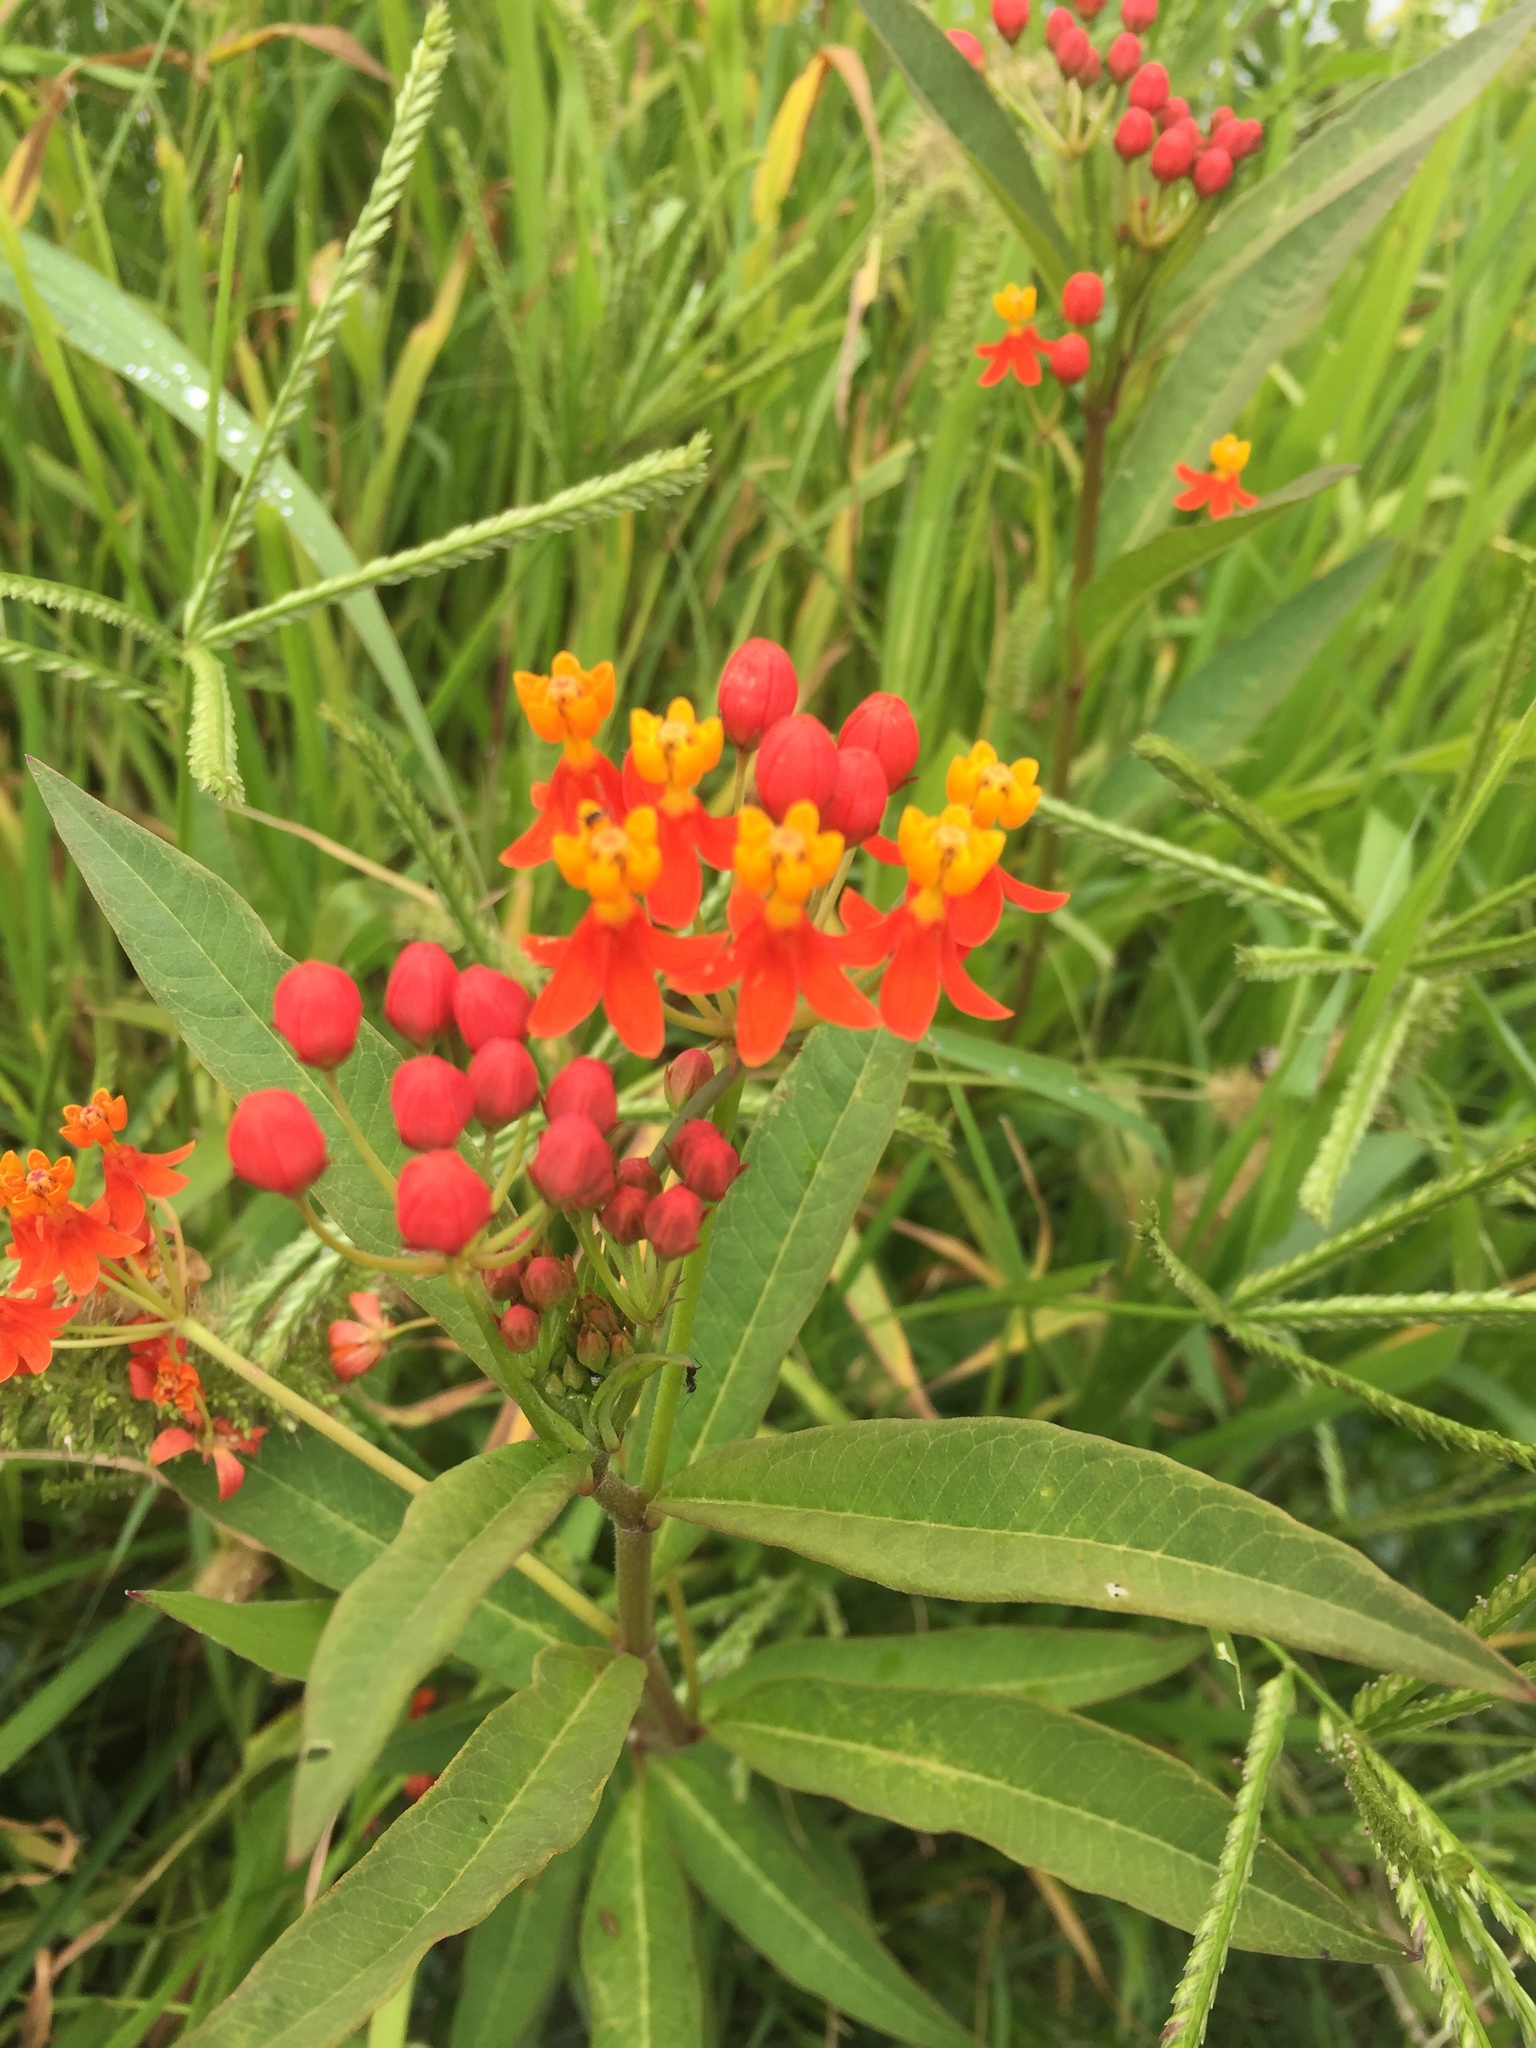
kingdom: Plantae
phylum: Tracheophyta
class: Magnoliopsida
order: Gentianales
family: Apocynaceae
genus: Asclepias
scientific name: Asclepias curassavica
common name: Bloodflower
